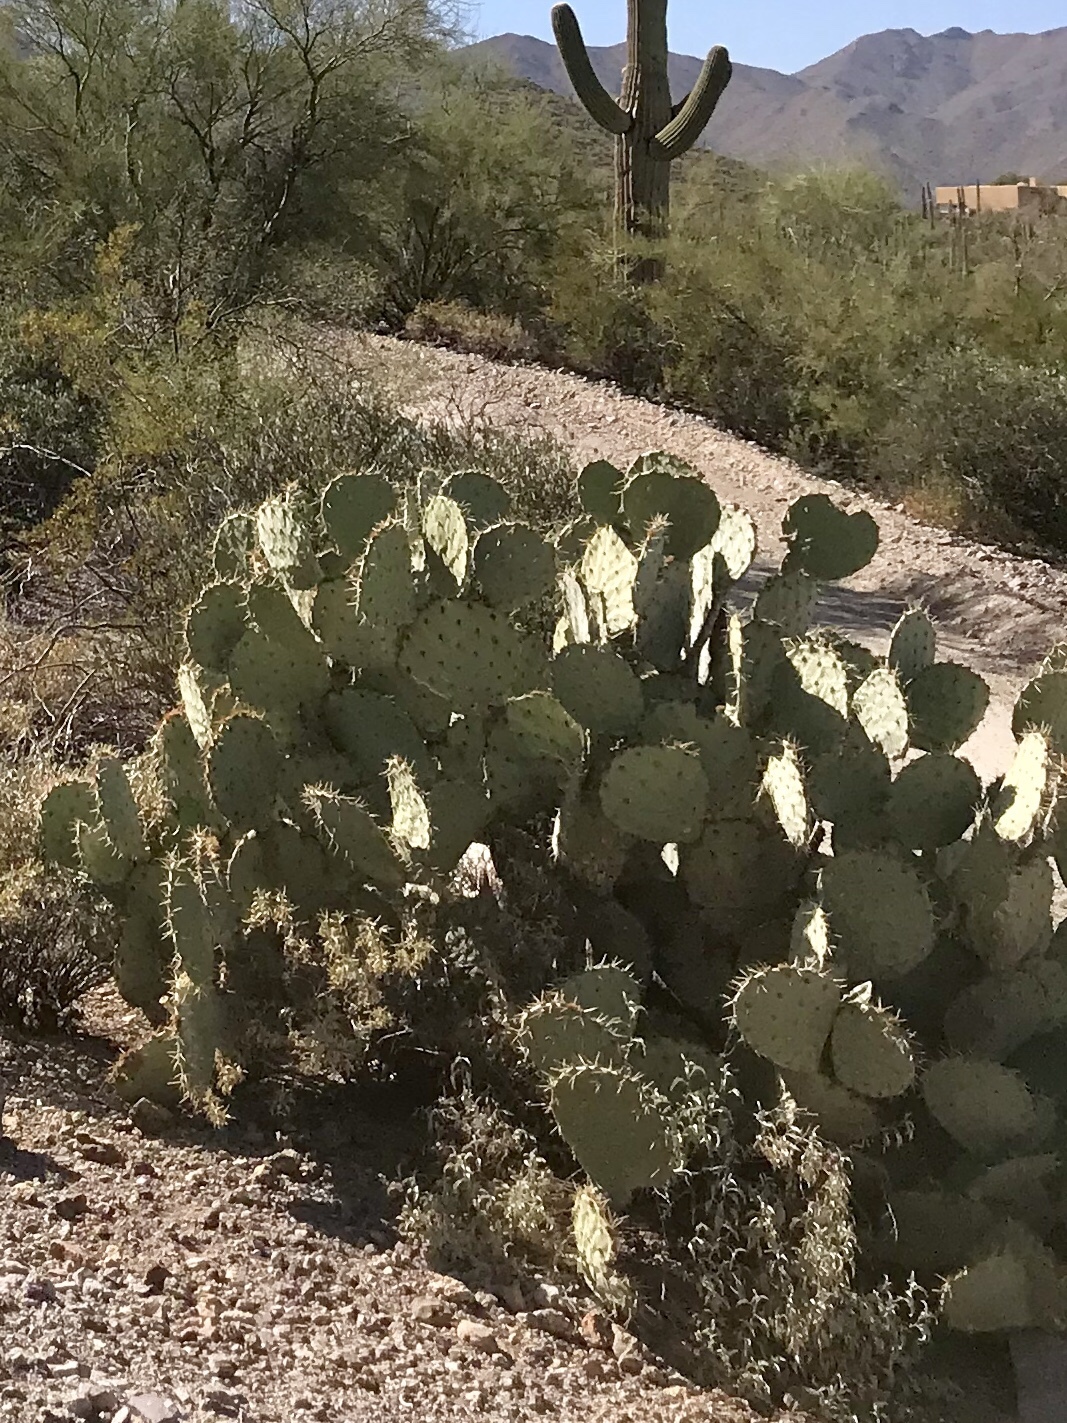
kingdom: Plantae
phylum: Tracheophyta
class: Magnoliopsida
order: Caryophyllales
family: Cactaceae
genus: Opuntia
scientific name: Opuntia engelmannii
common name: Cactus-apple
